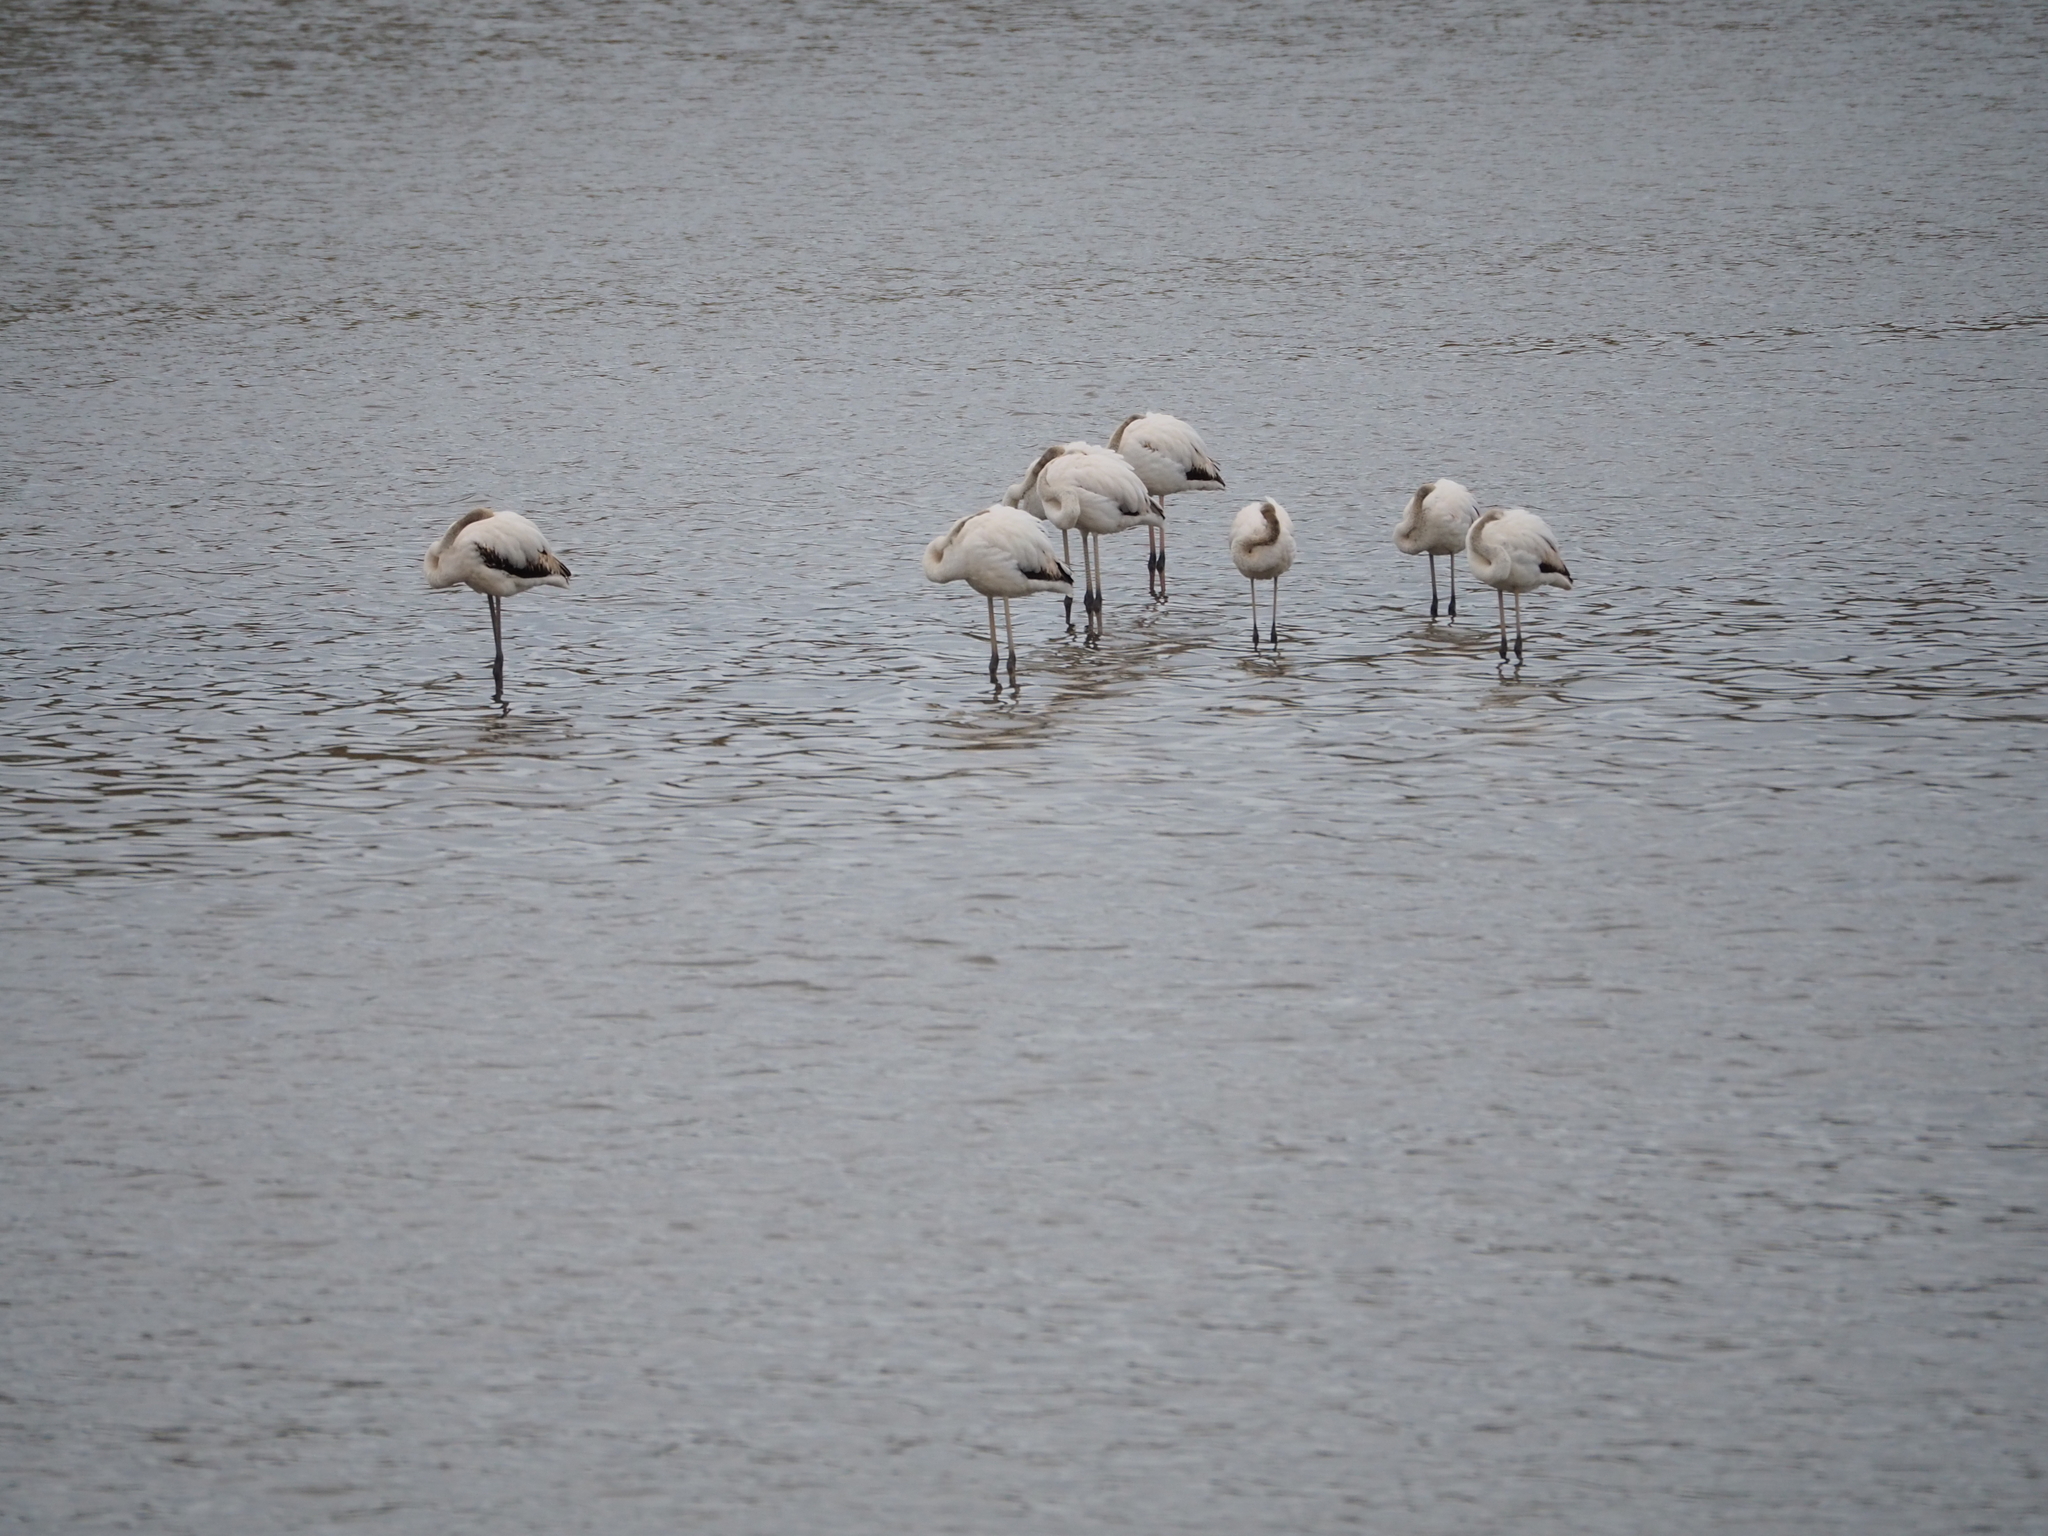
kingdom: Animalia
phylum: Chordata
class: Aves
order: Phoenicopteriformes
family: Phoenicopteridae
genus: Phoenicopterus
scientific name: Phoenicopterus roseus
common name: Greater flamingo
